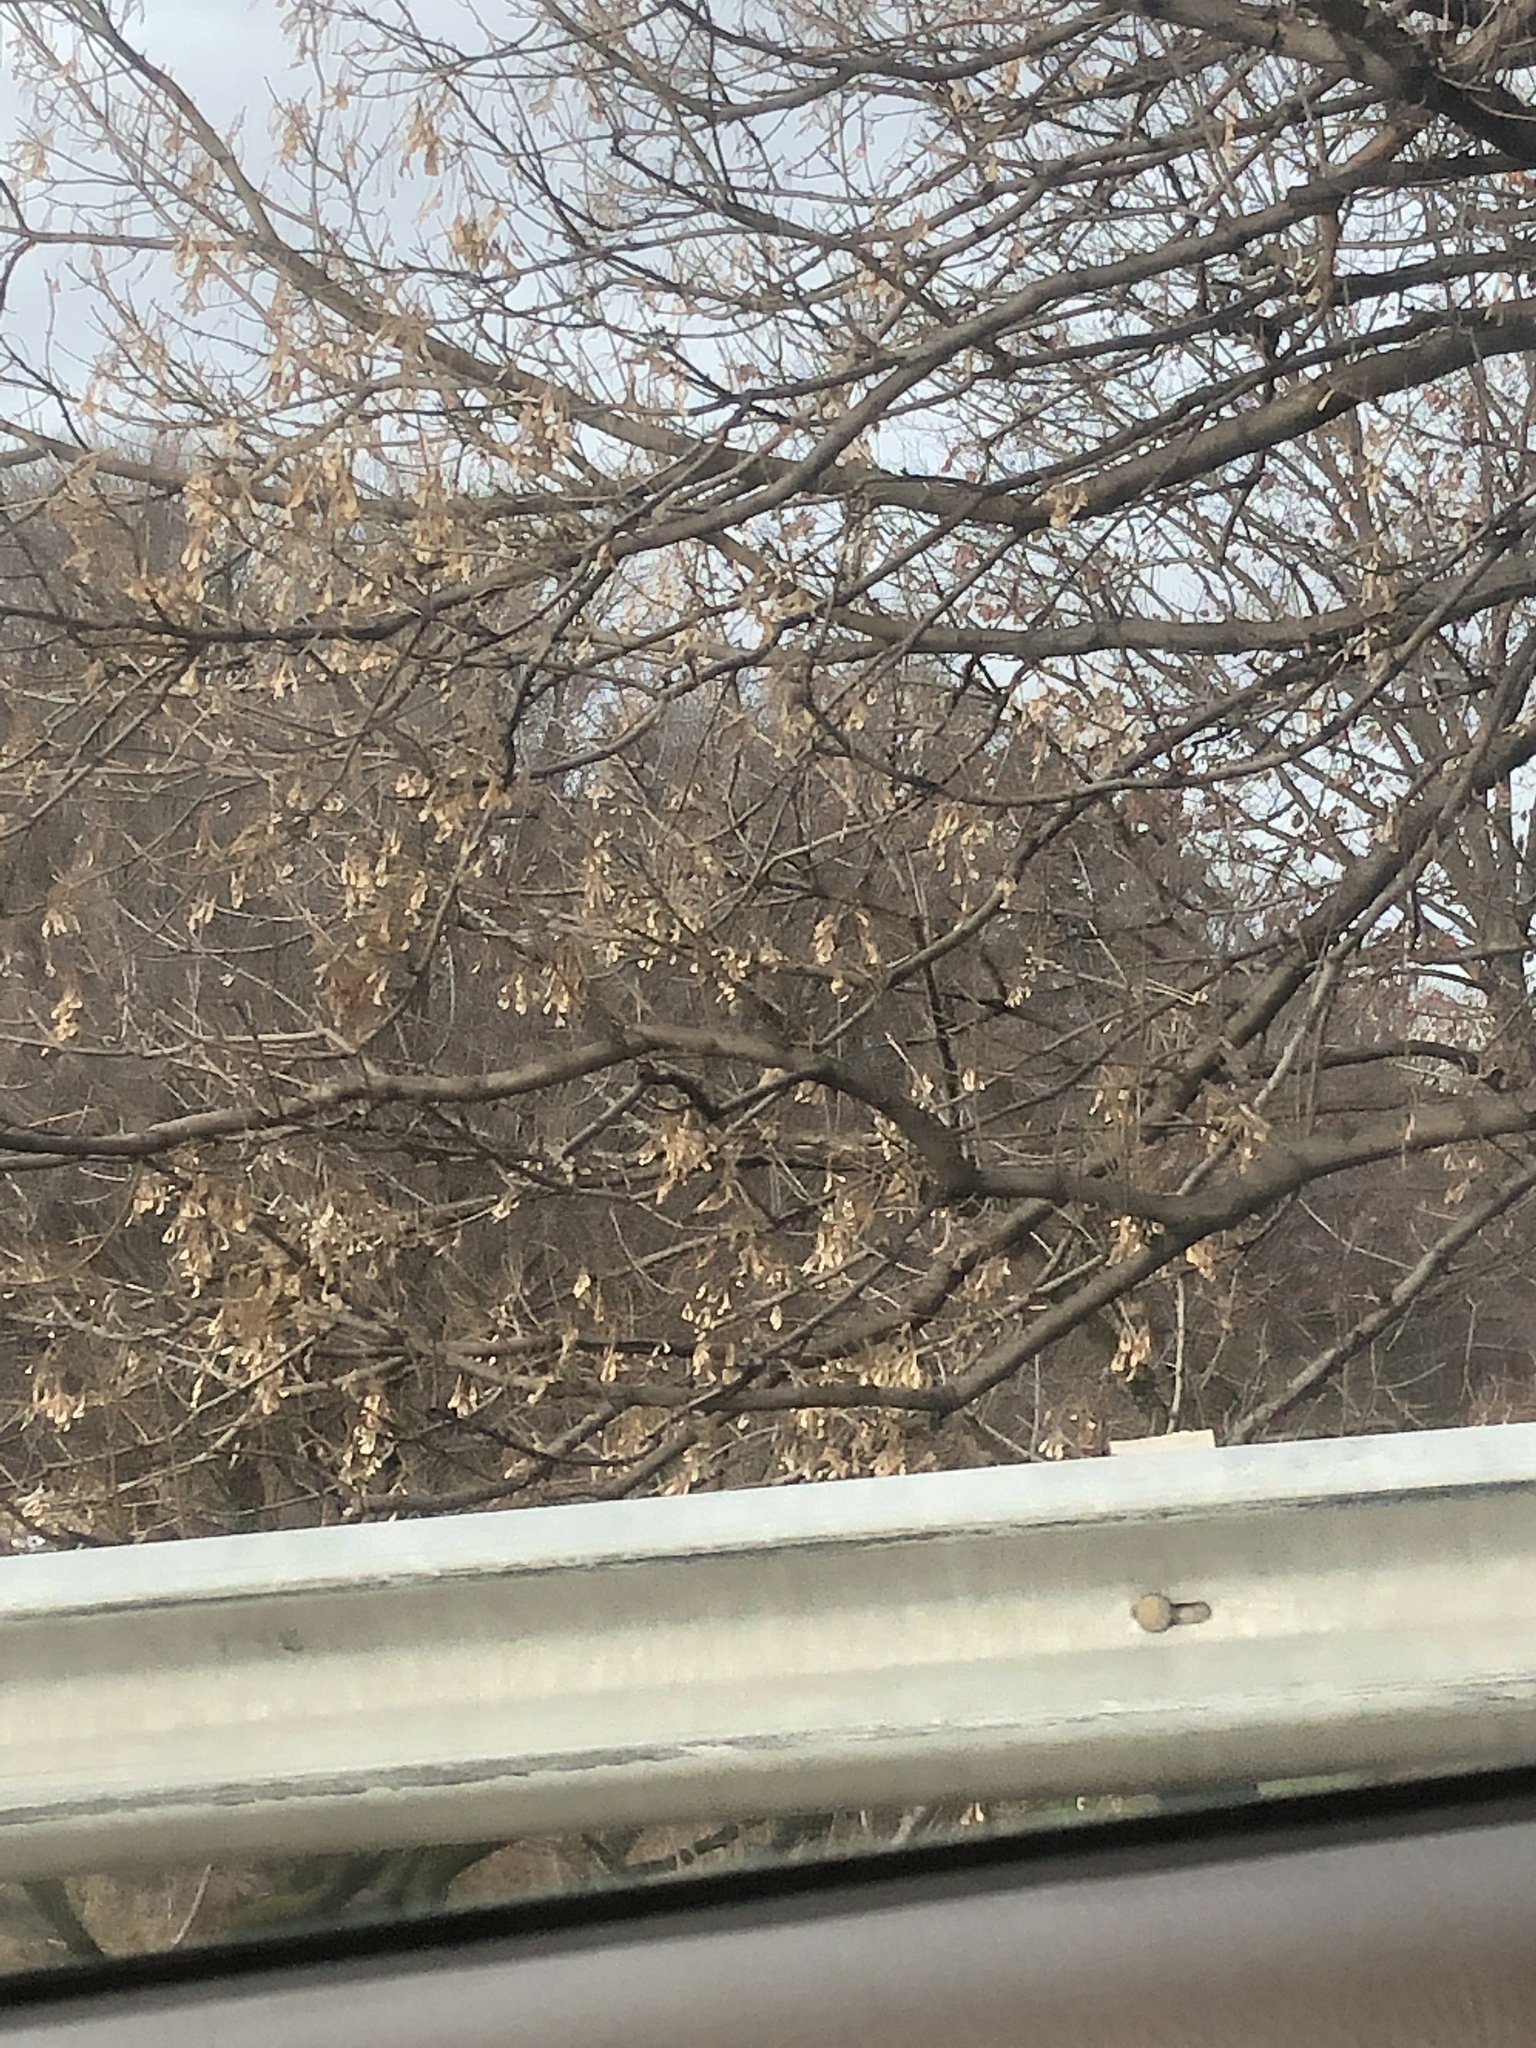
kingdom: Plantae
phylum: Tracheophyta
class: Magnoliopsida
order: Sapindales
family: Sapindaceae
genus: Acer
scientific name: Acer negundo
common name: Ashleaf maple
